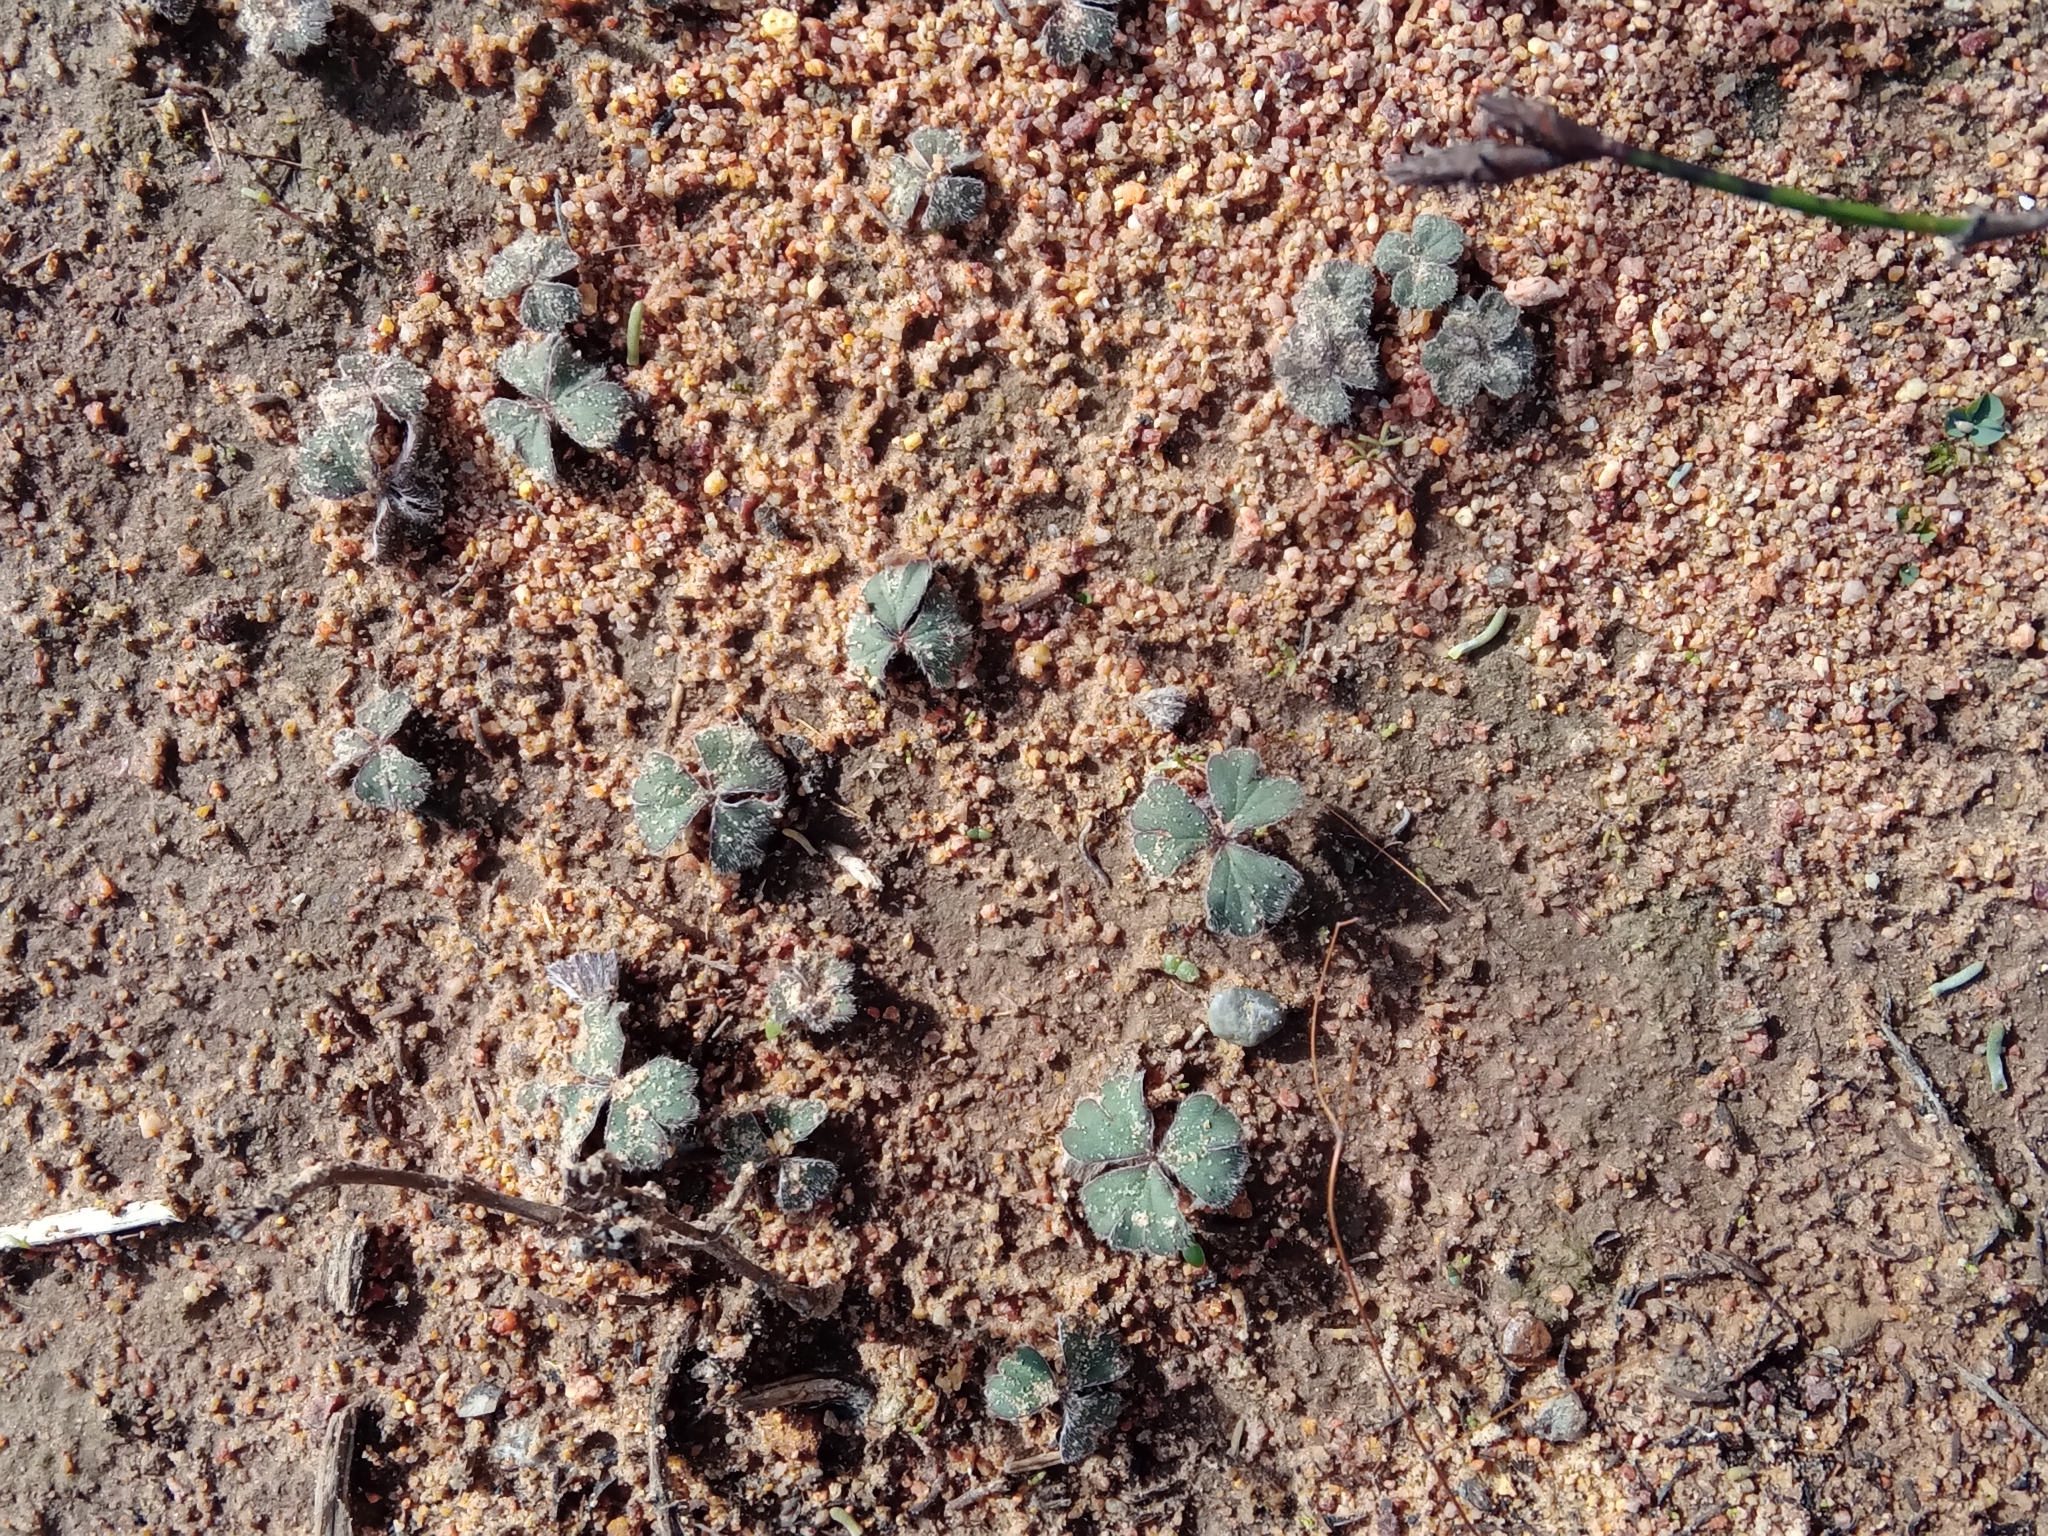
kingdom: Plantae
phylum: Tracheophyta
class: Magnoliopsida
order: Geraniales
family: Geraniaceae
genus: Pelargonium
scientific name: Pelargonium ternifolium
